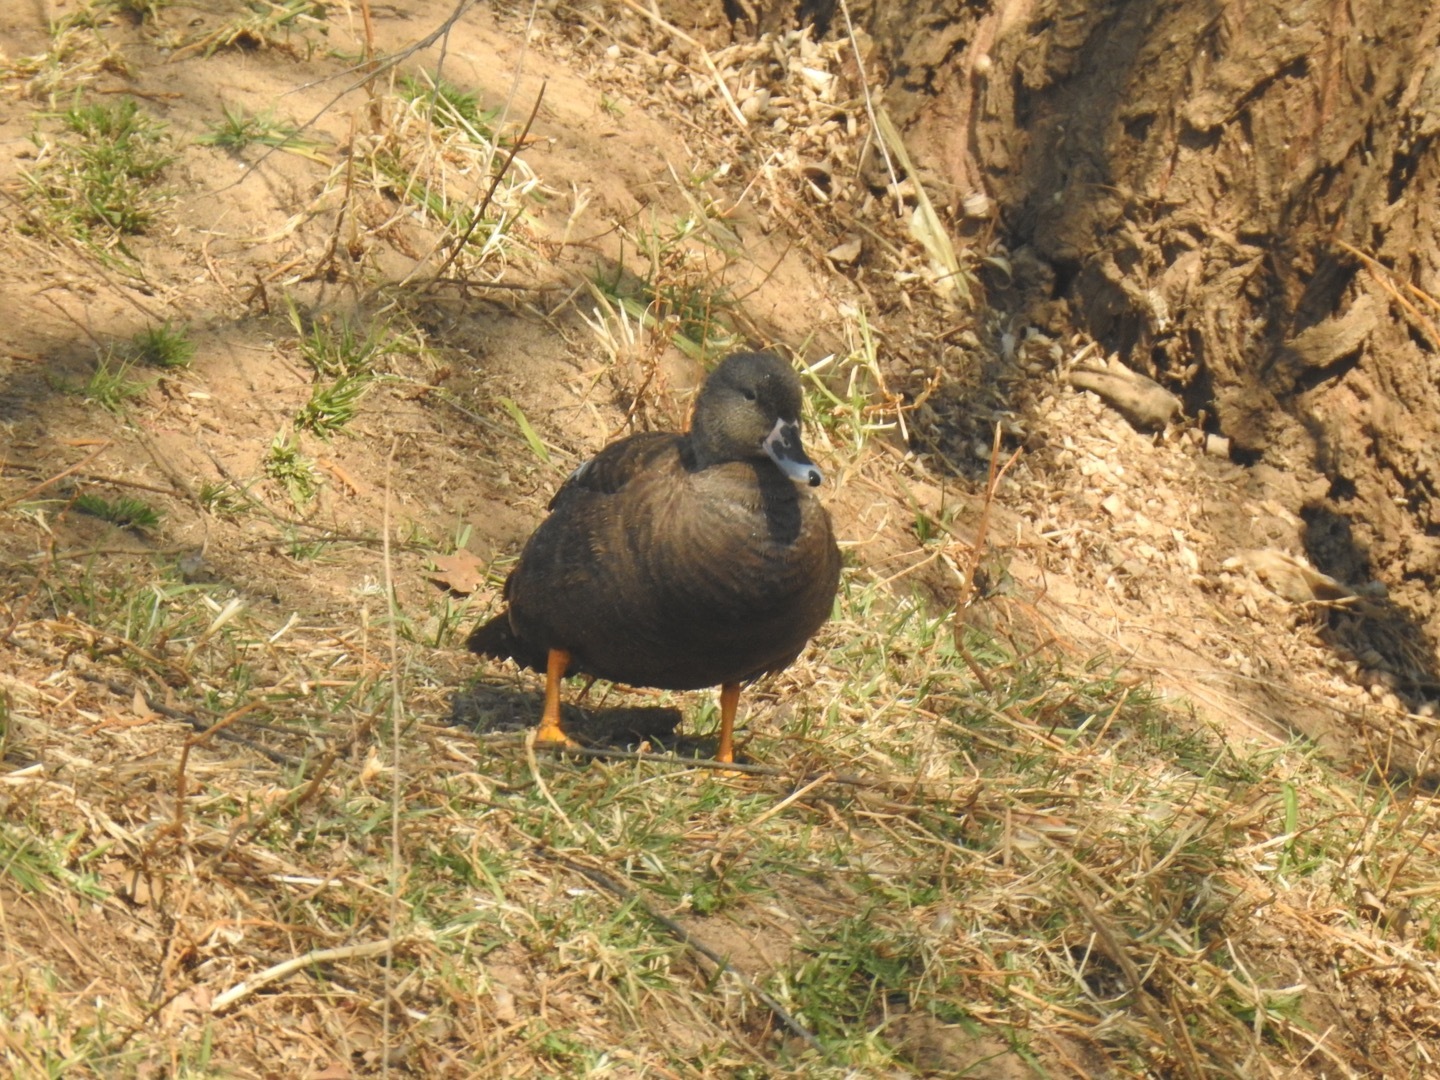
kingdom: Animalia
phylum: Chordata
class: Aves
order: Anseriformes
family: Anatidae
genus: Anas
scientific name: Anas sparsa
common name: African black duck
